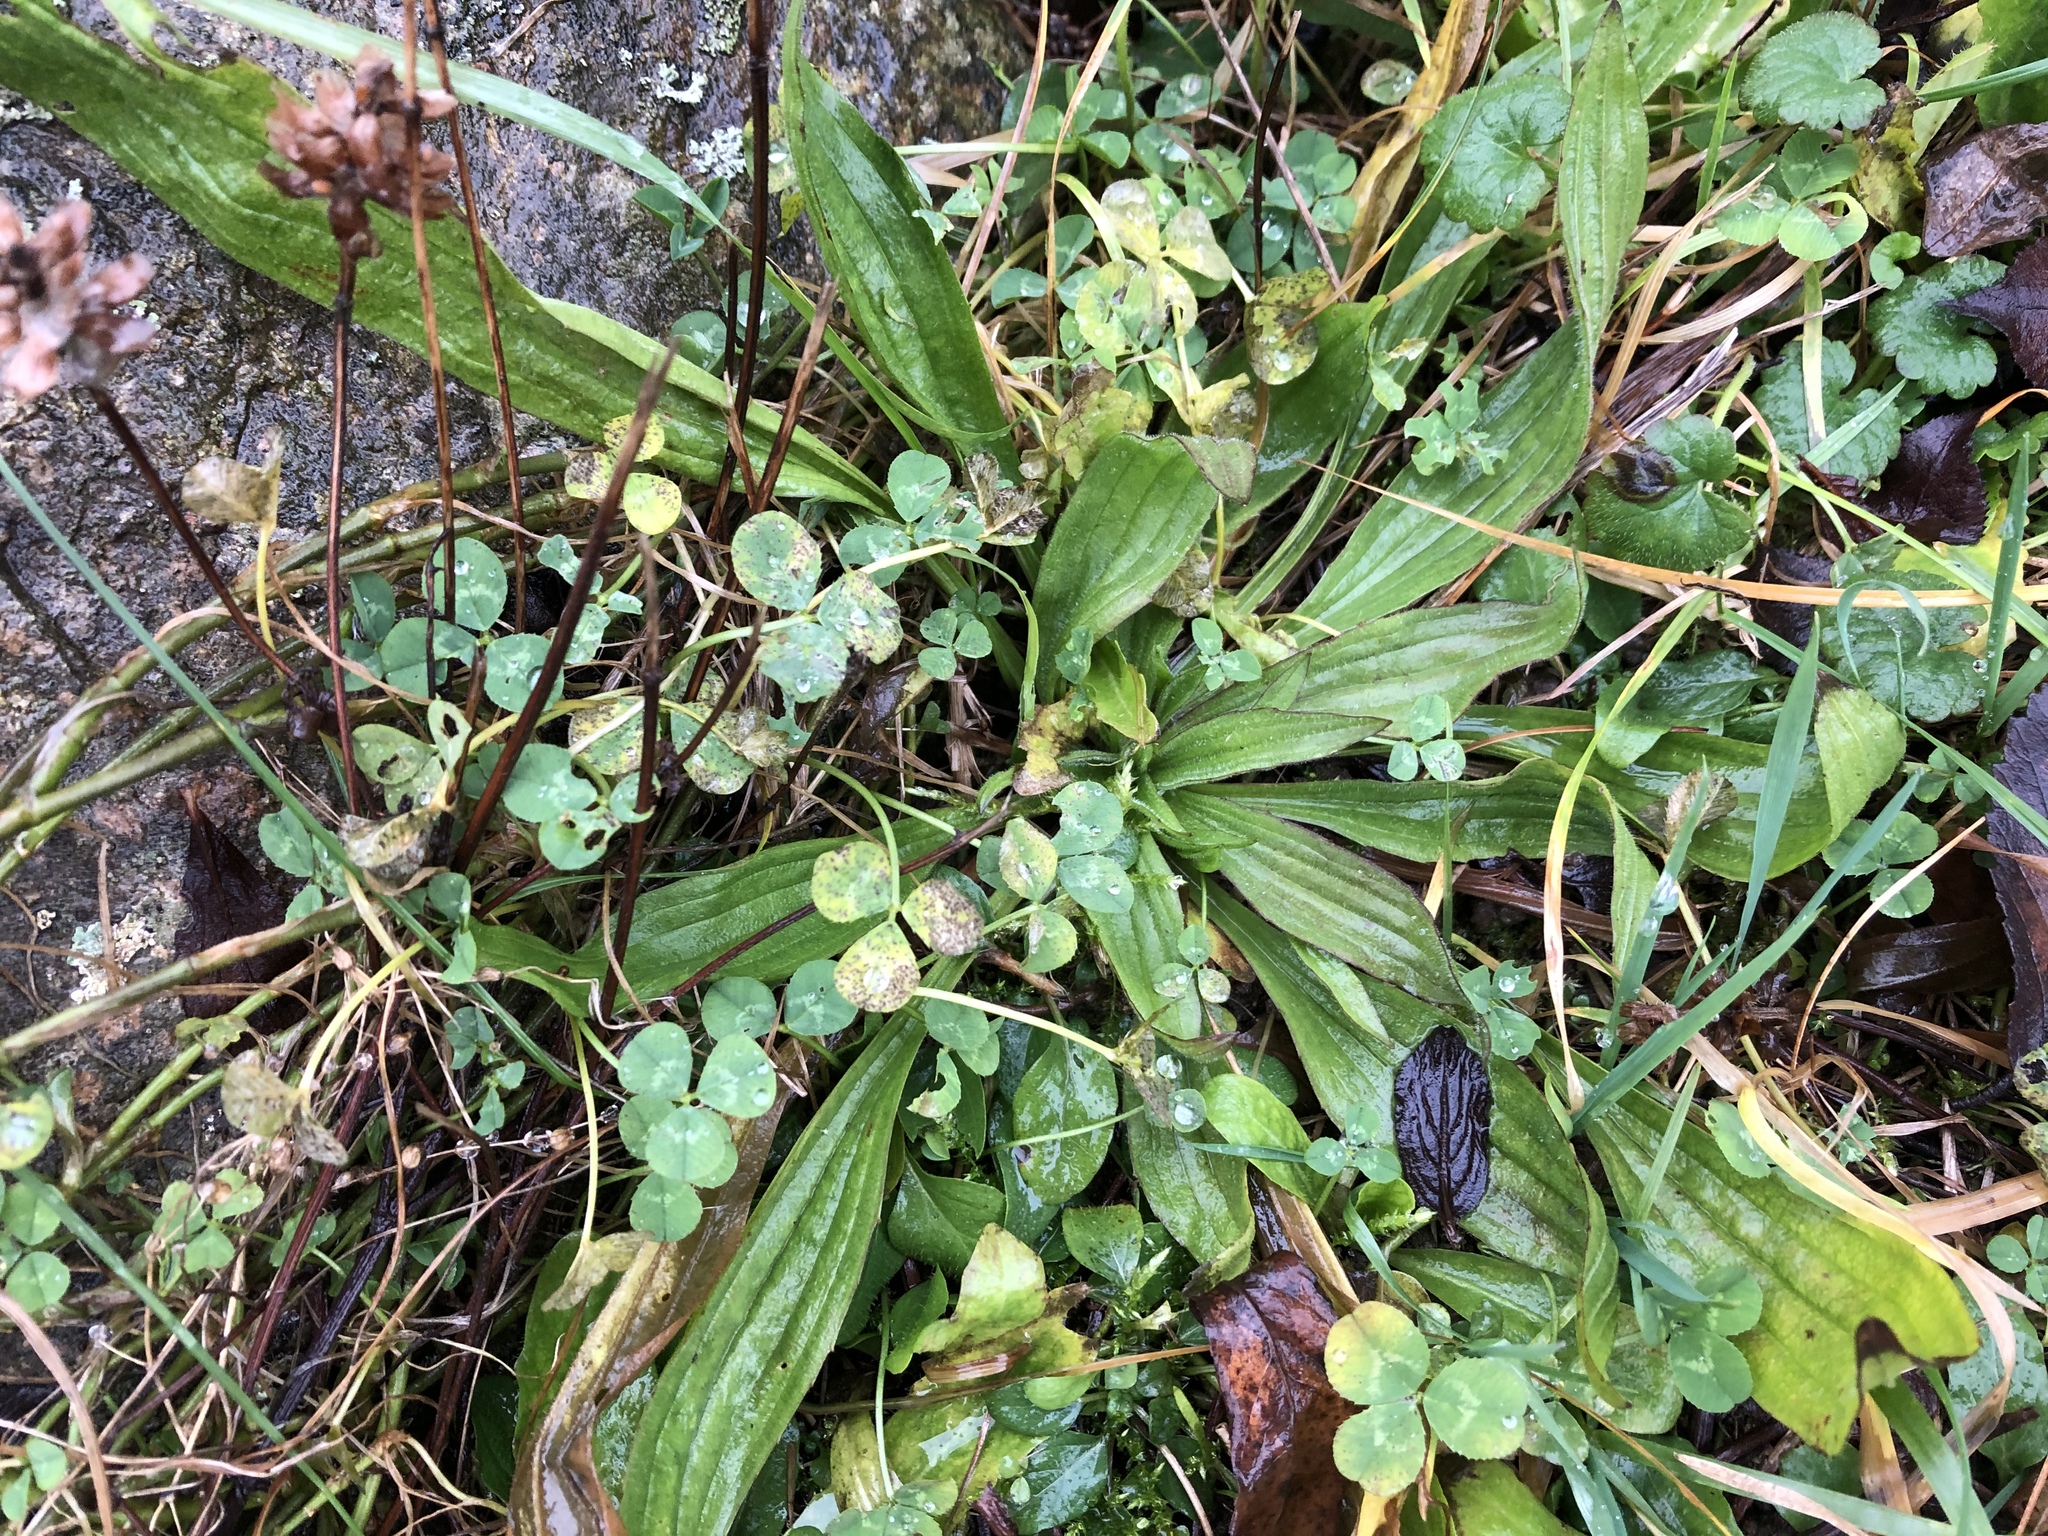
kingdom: Plantae
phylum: Tracheophyta
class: Magnoliopsida
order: Lamiales
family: Plantaginaceae
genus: Plantago
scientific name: Plantago lanceolata
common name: Ribwort plantain
